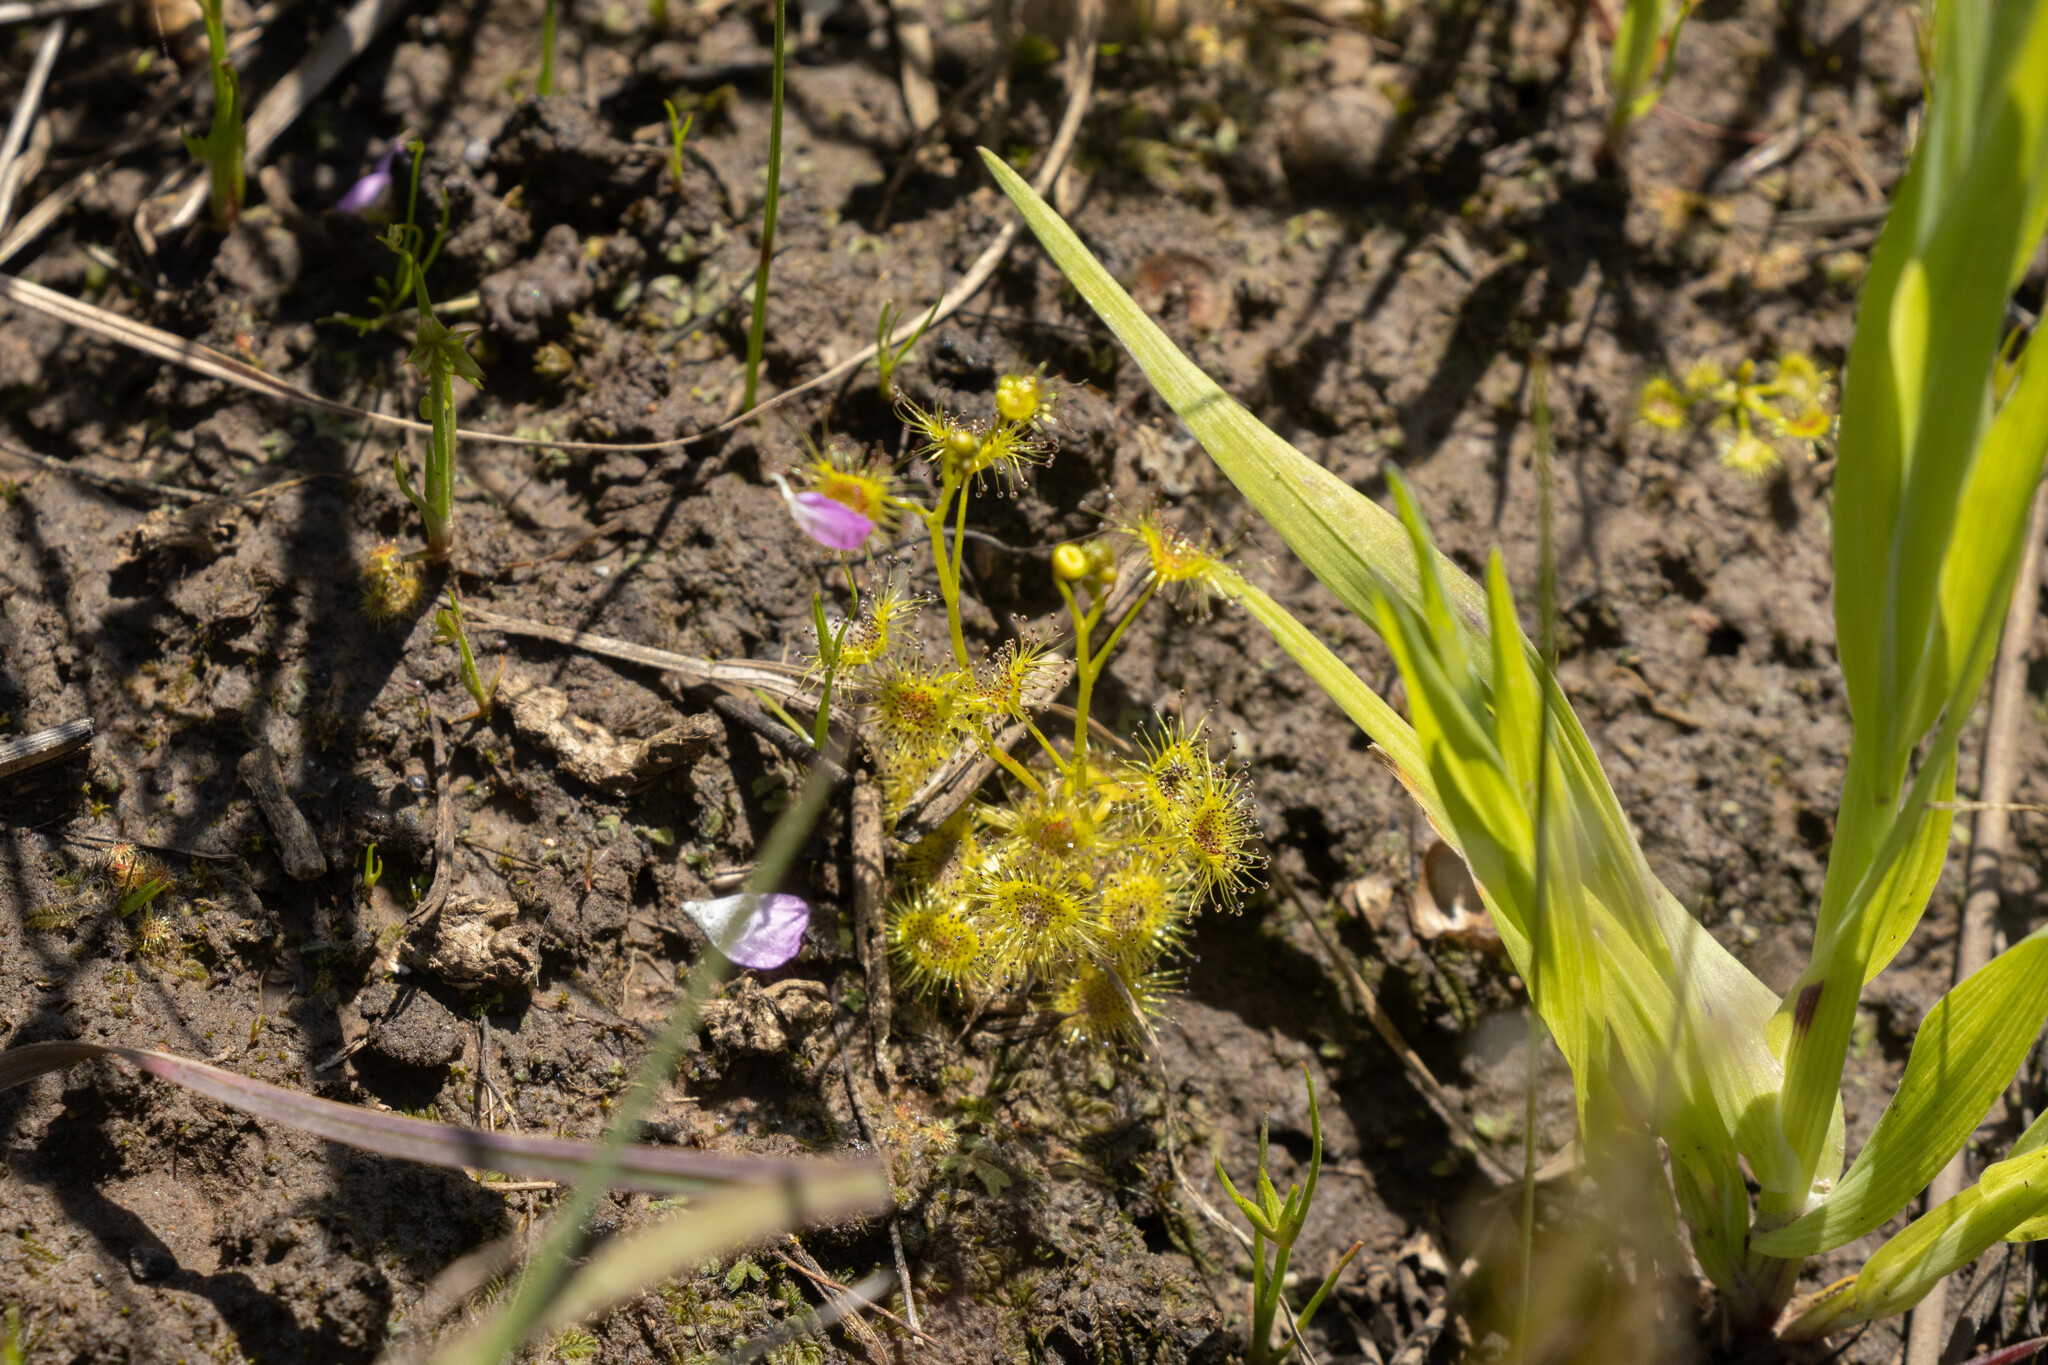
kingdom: Plantae
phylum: Tracheophyta
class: Magnoliopsida
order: Caryophyllales
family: Droseraceae
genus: Drosera
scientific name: Drosera hookeri
